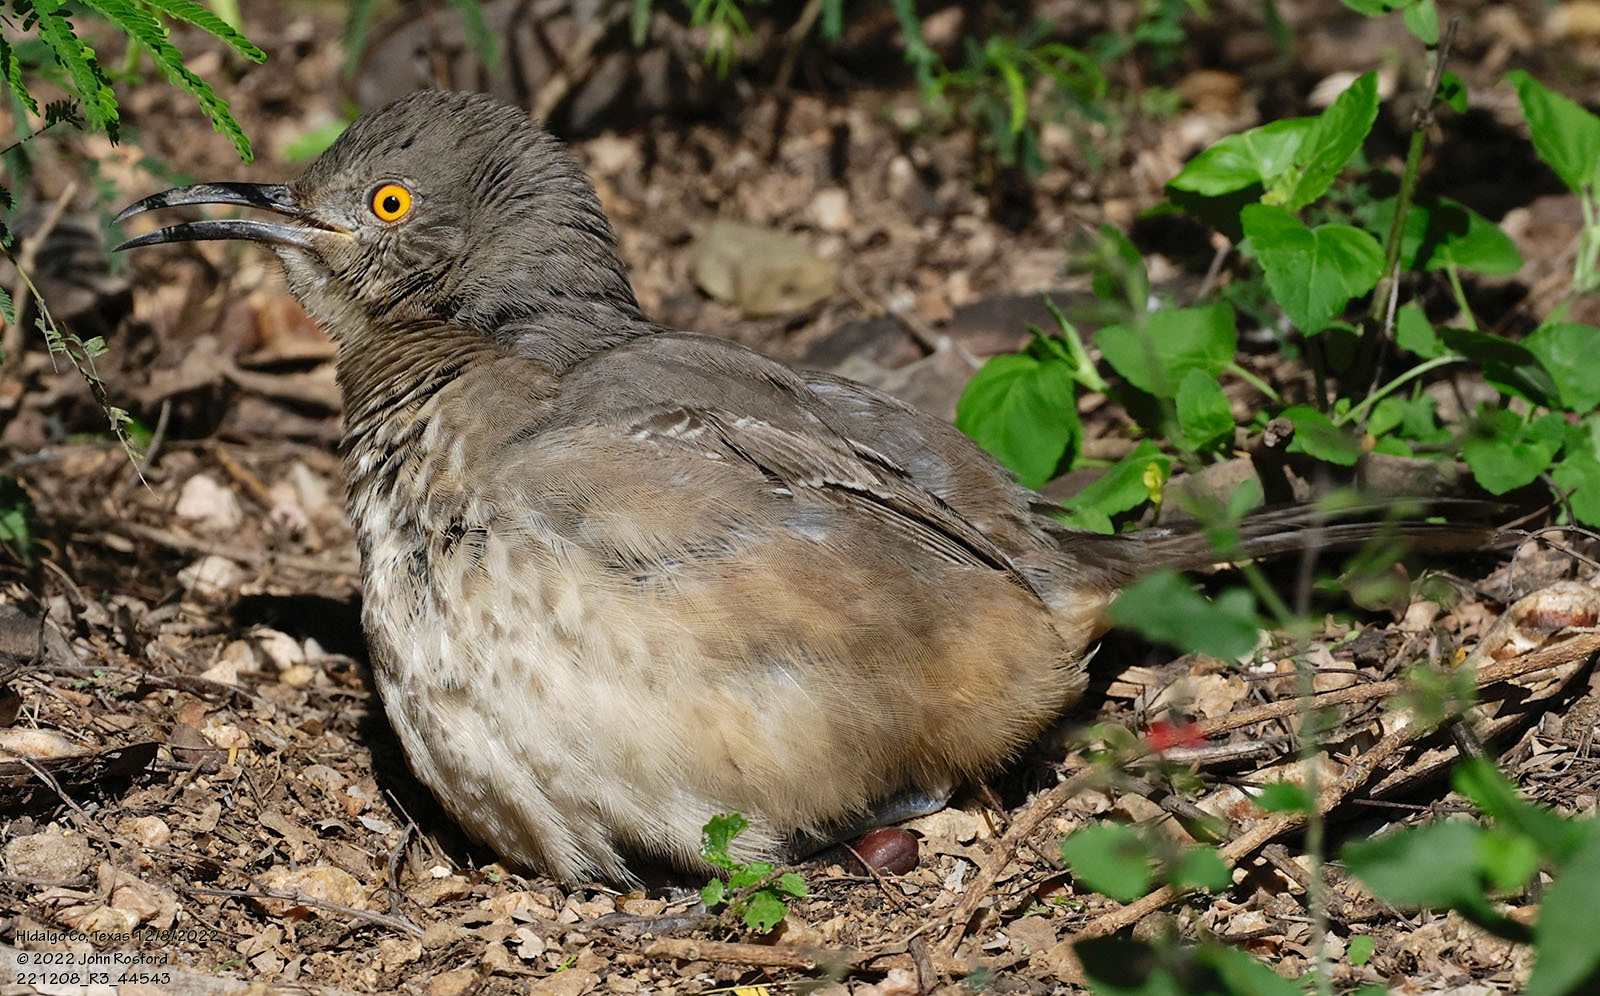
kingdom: Animalia
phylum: Chordata
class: Aves
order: Passeriformes
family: Mimidae
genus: Toxostoma
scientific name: Toxostoma curvirostre
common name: Curve-billed thrasher
